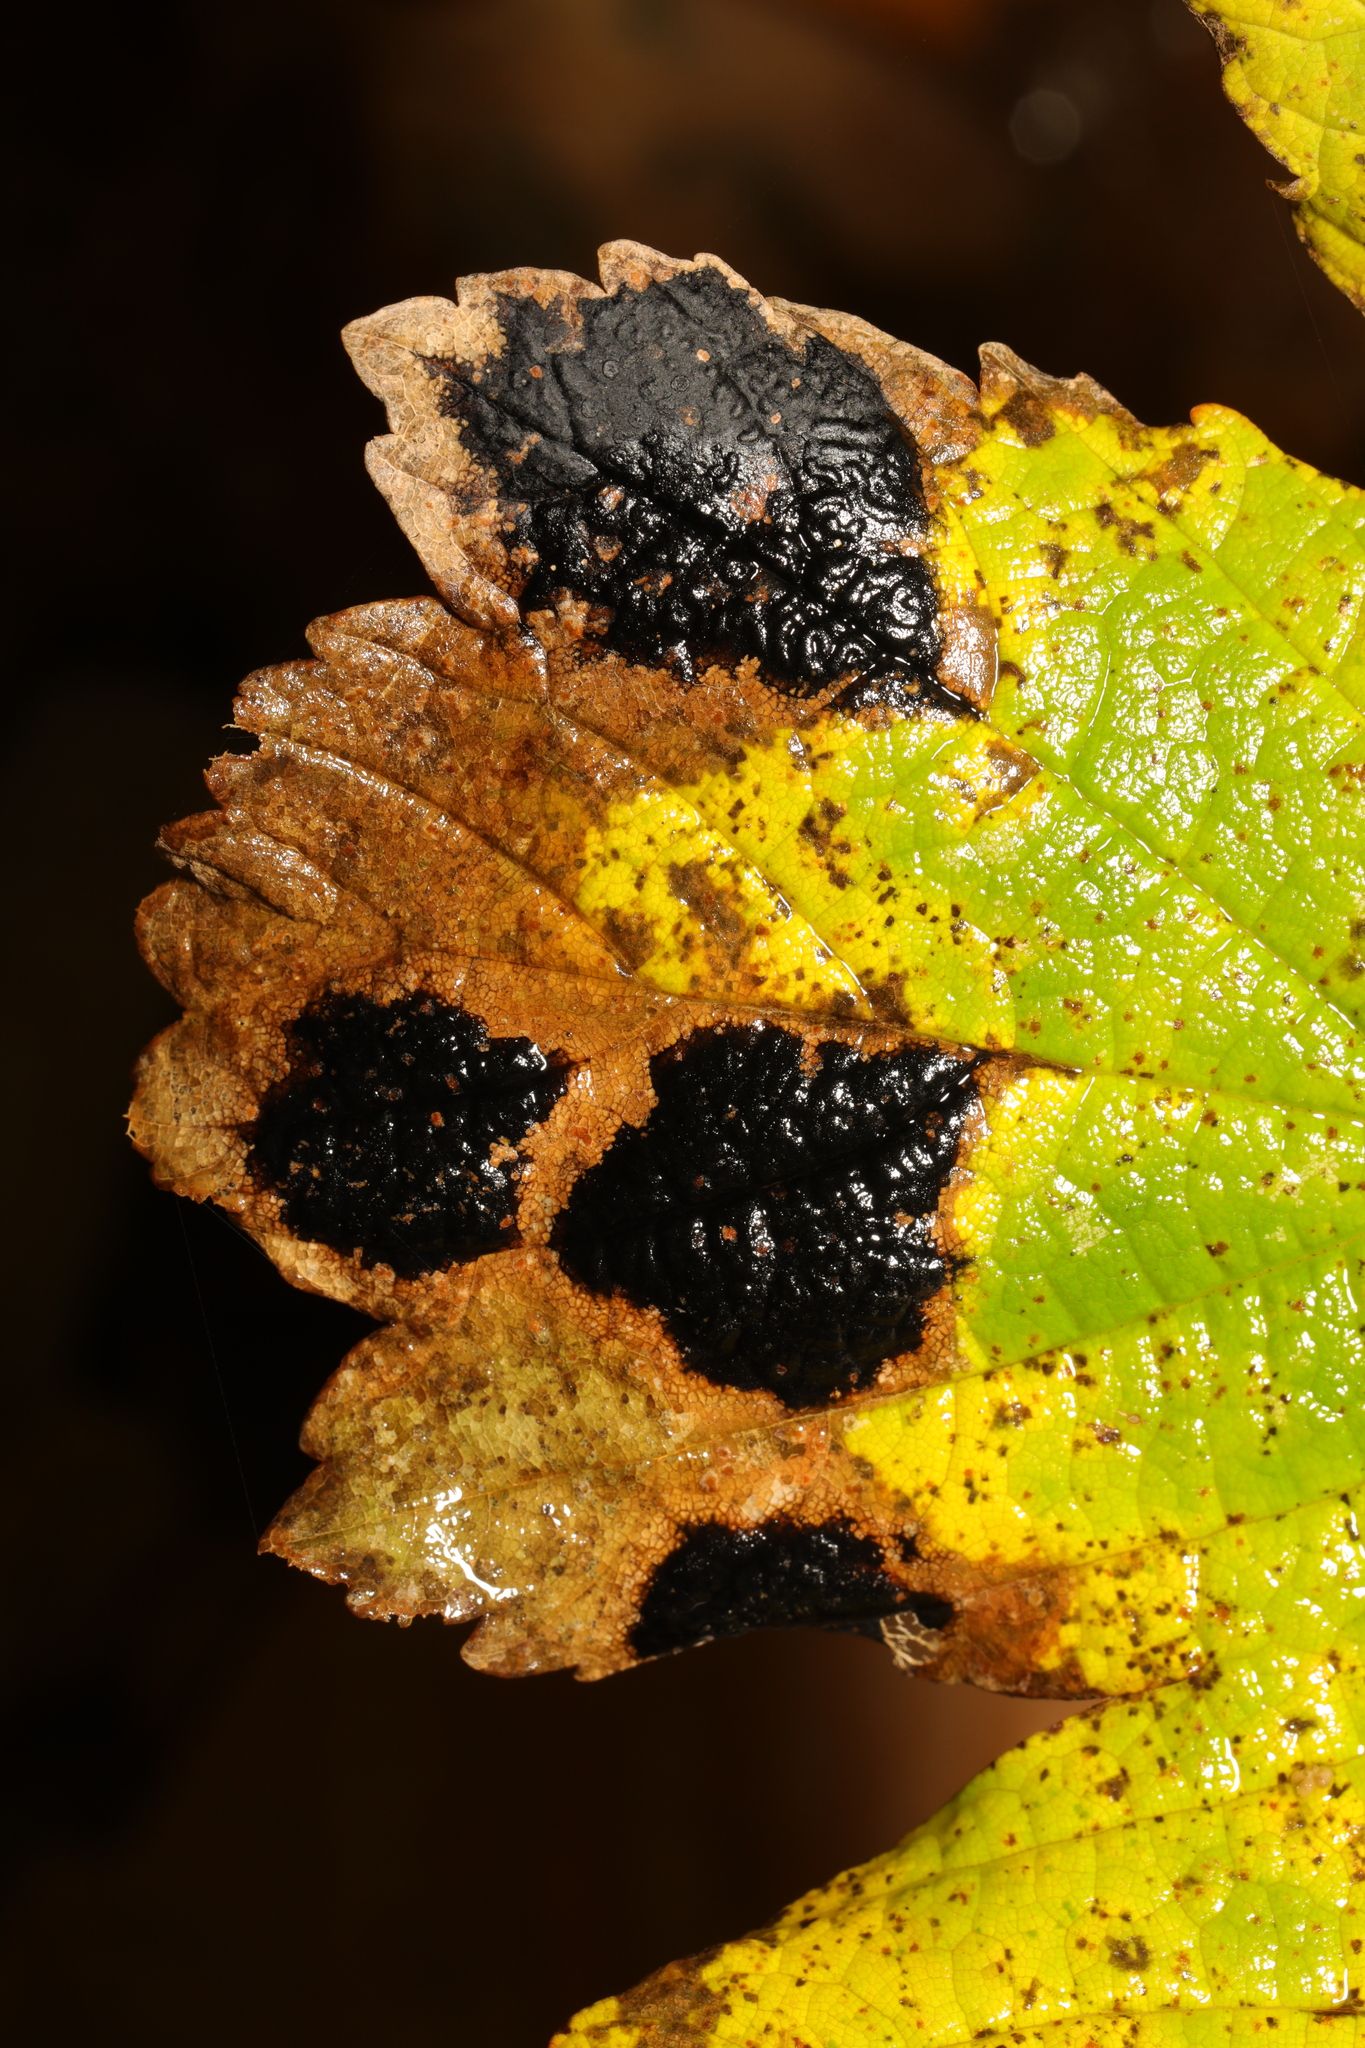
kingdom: Fungi
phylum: Ascomycota
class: Leotiomycetes
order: Rhytismatales
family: Rhytismataceae
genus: Rhytisma
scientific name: Rhytisma acerinum
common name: European tar spot
